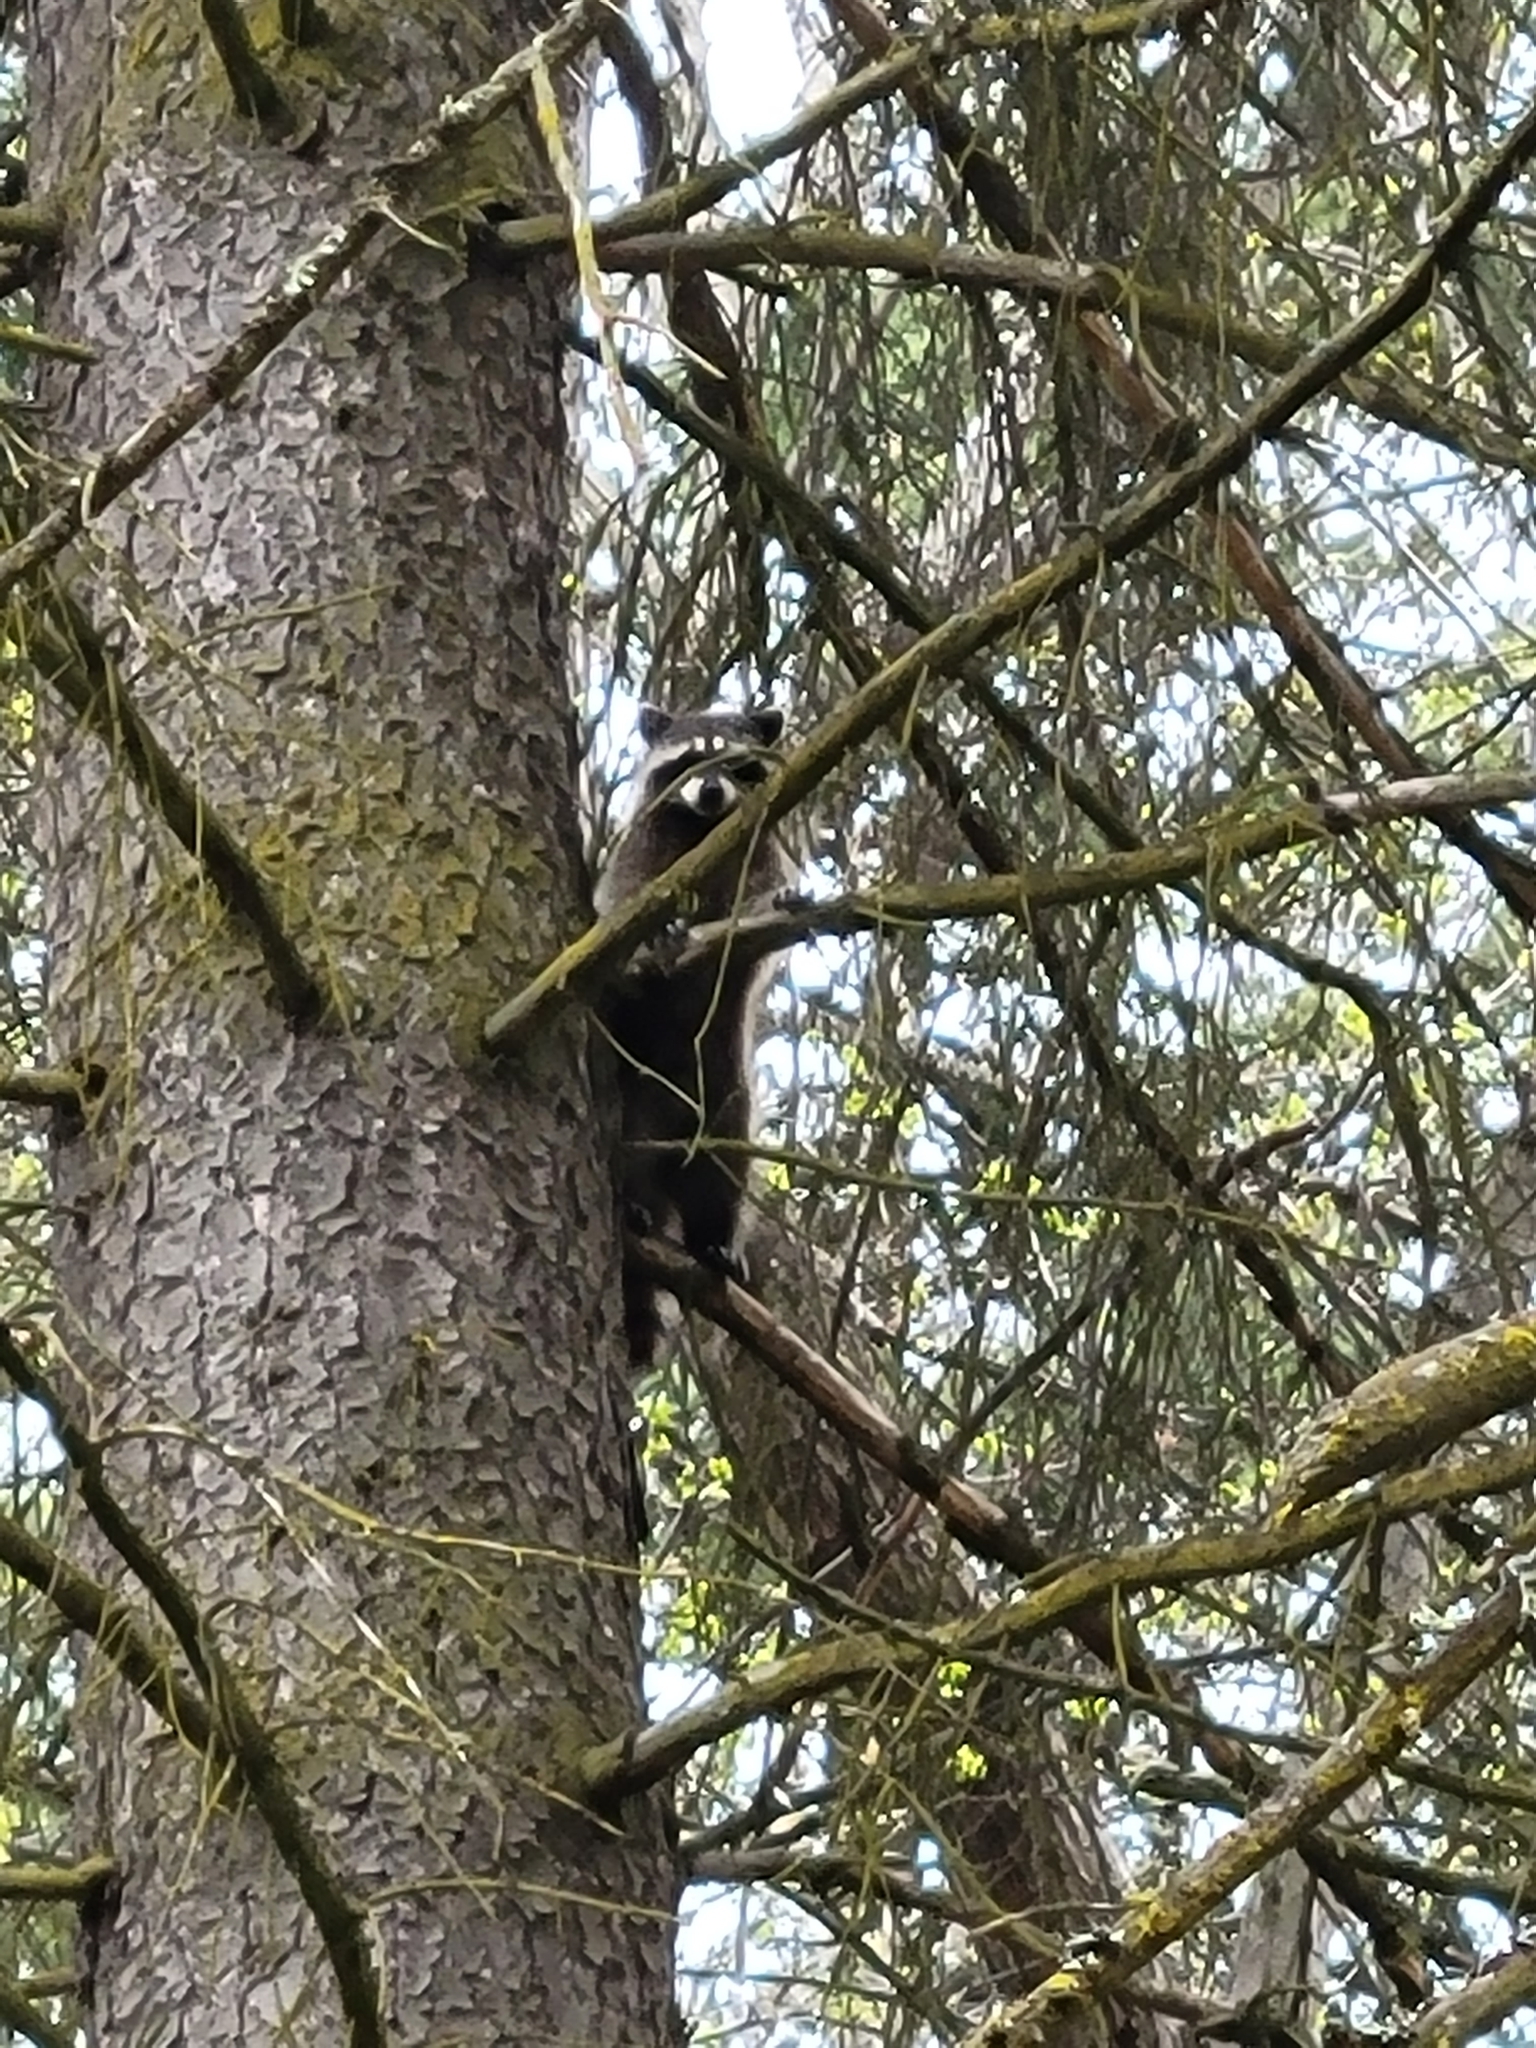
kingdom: Animalia
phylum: Chordata
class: Mammalia
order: Carnivora
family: Procyonidae
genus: Procyon
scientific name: Procyon lotor
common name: Raccoon
